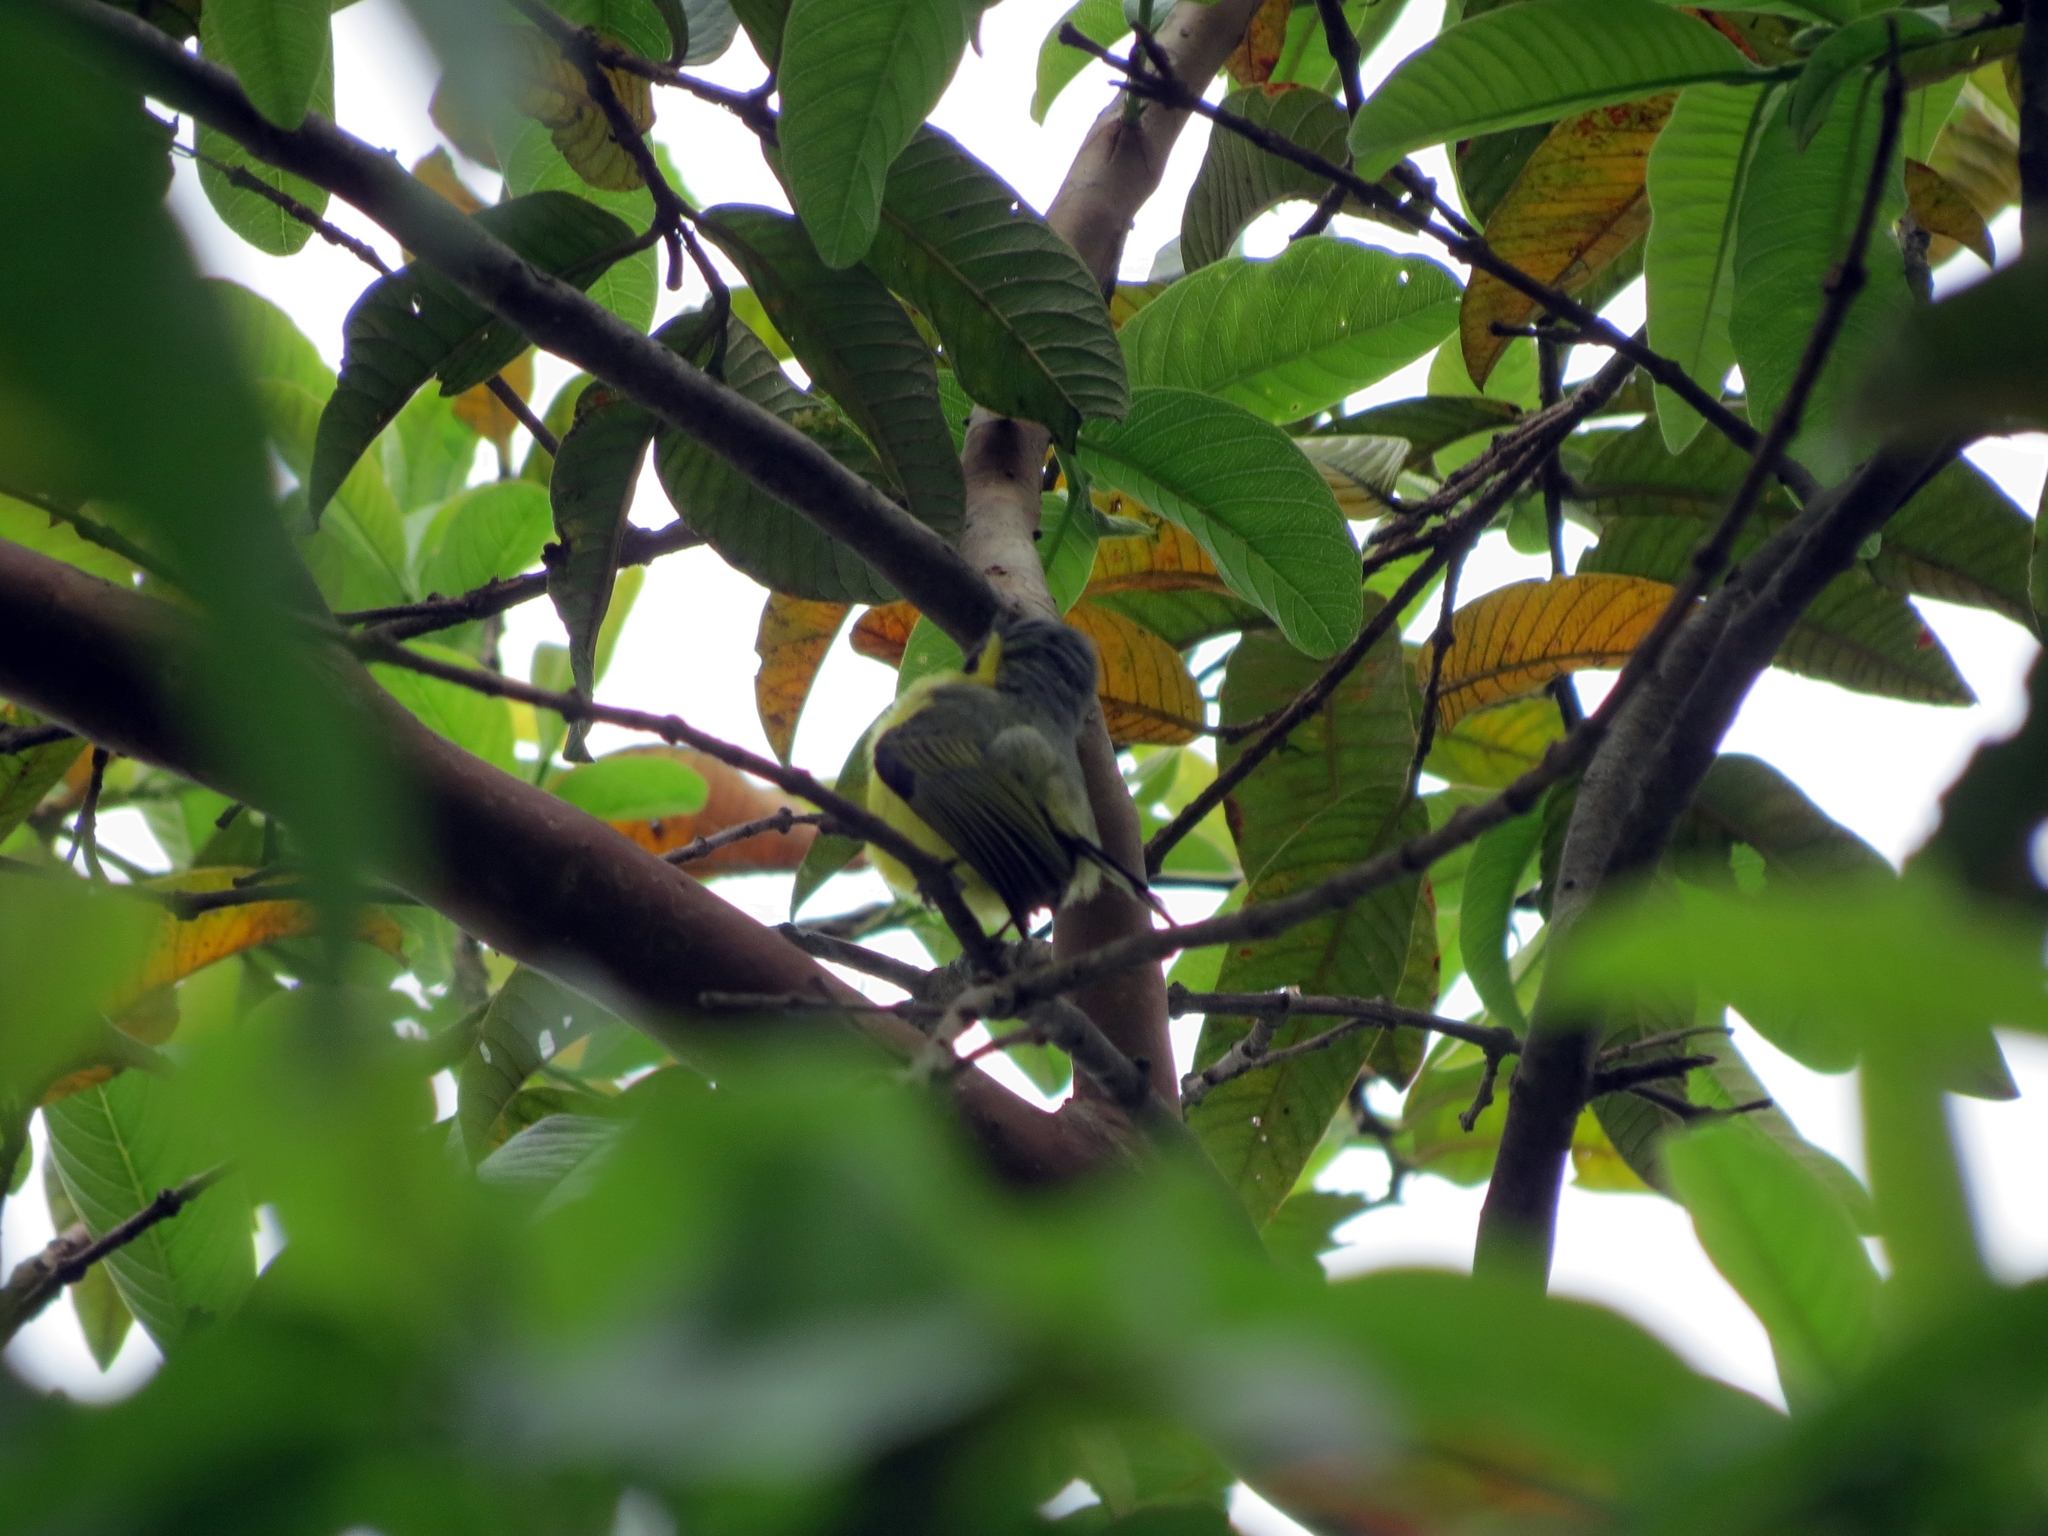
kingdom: Animalia
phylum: Chordata
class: Aves
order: Passeriformes
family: Tyrannidae
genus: Todirostrum
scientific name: Todirostrum cinereum
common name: Common tody-flycatcher
